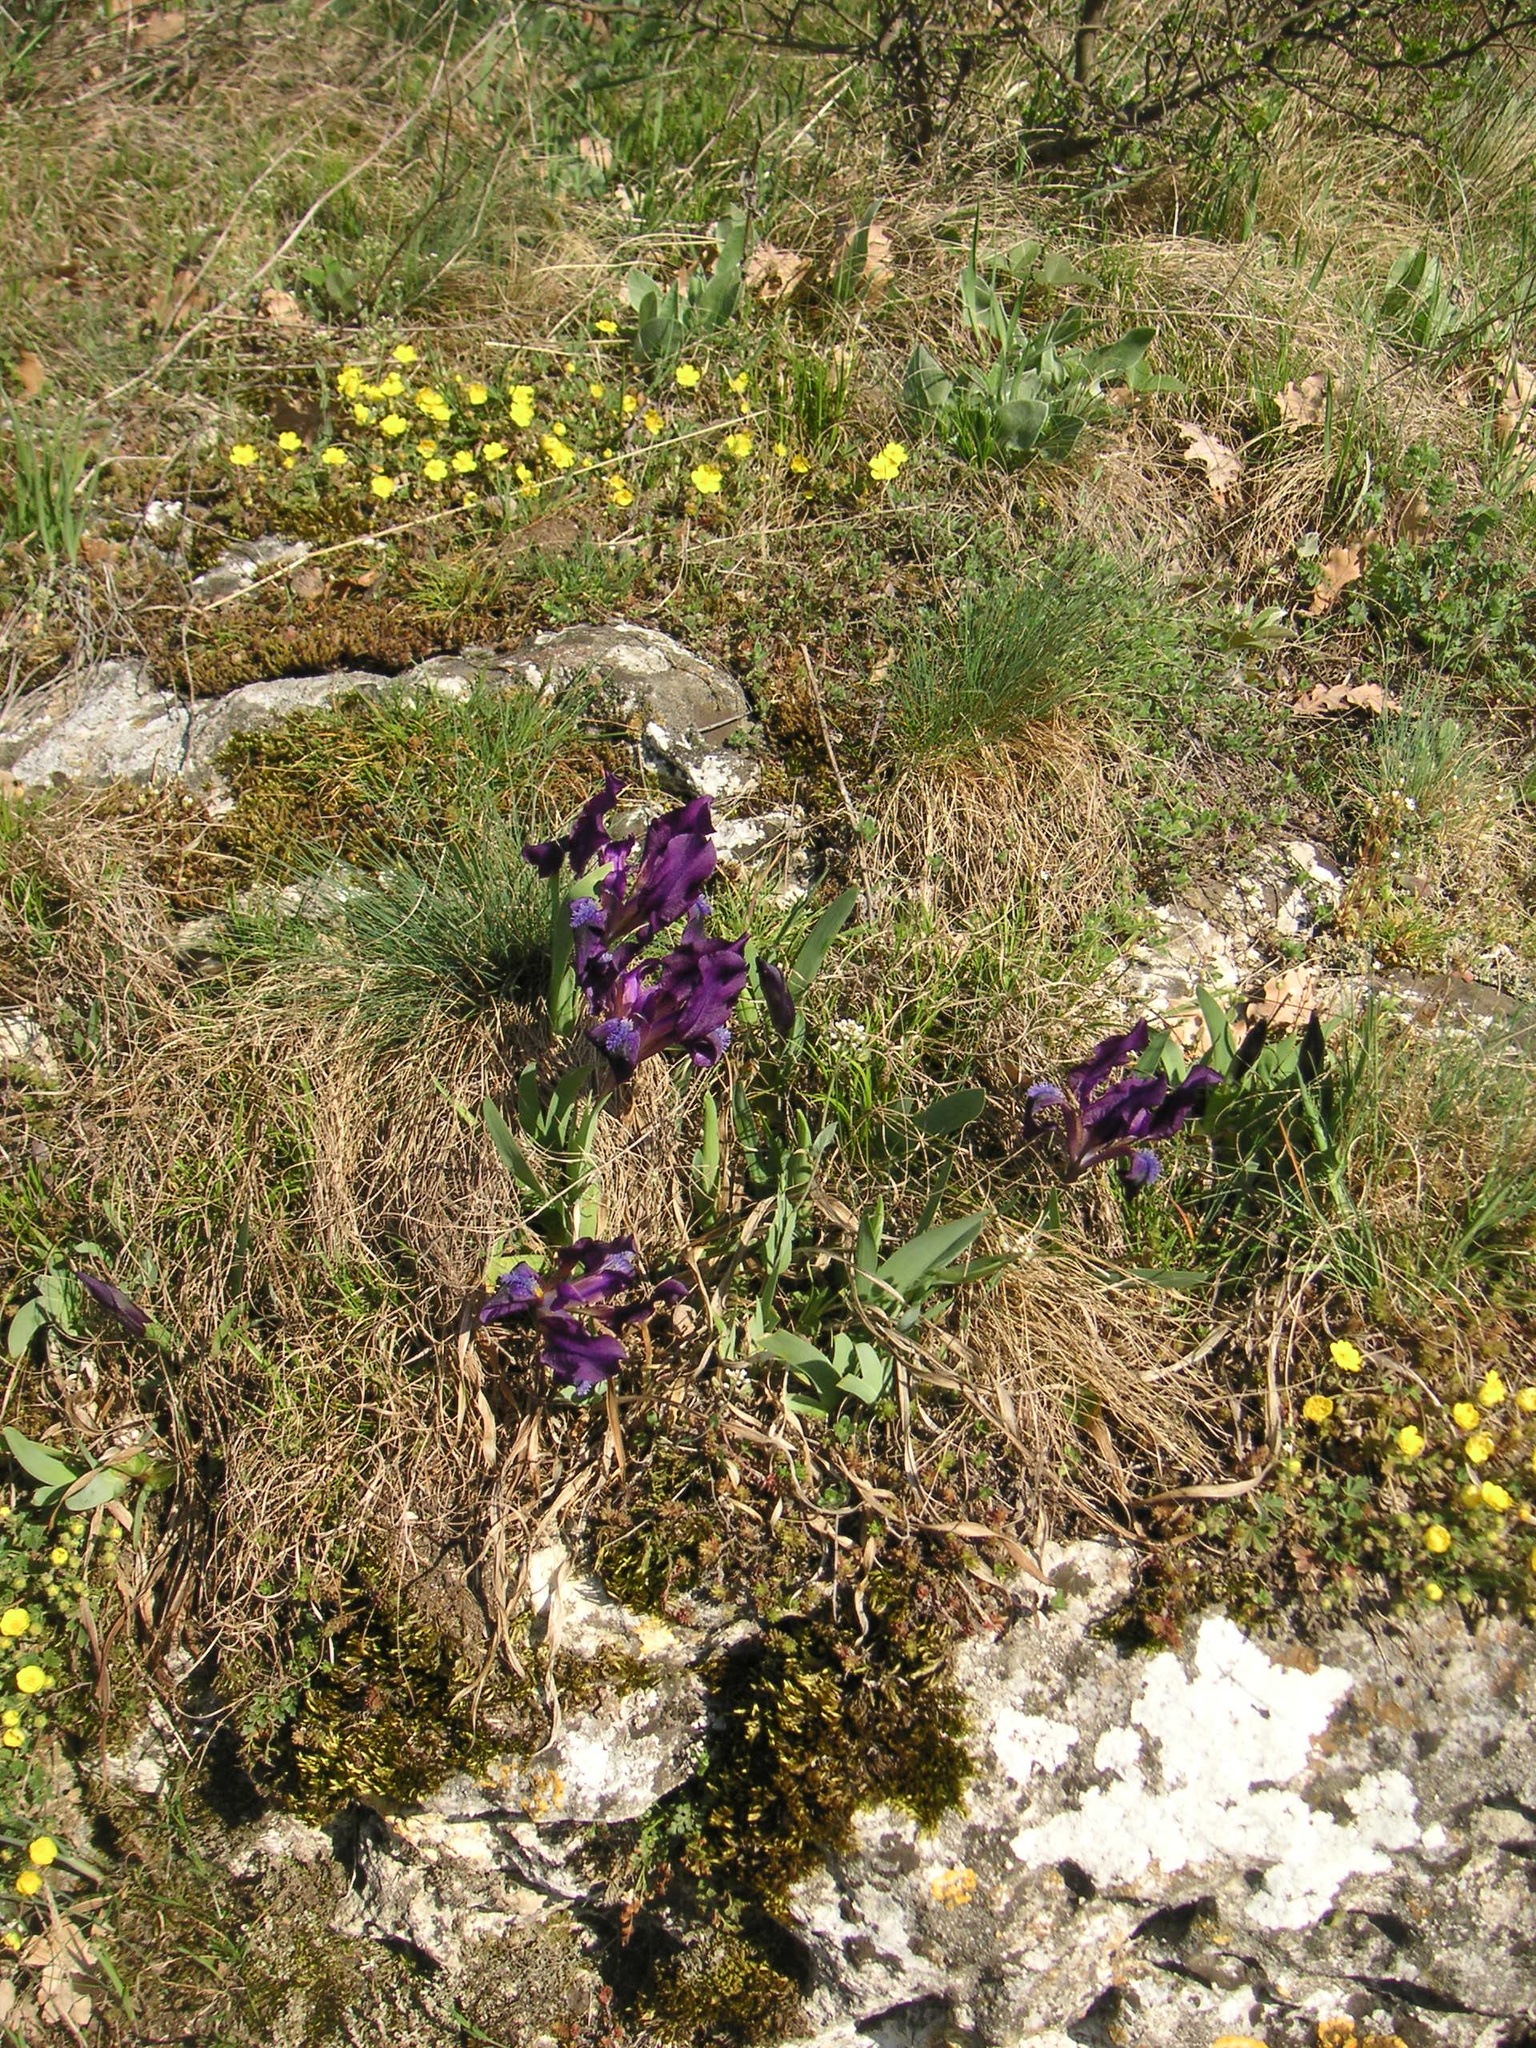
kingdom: Plantae
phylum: Tracheophyta
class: Liliopsida
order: Asparagales
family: Iridaceae
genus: Iris
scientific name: Iris pumila
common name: Dwarf iris
